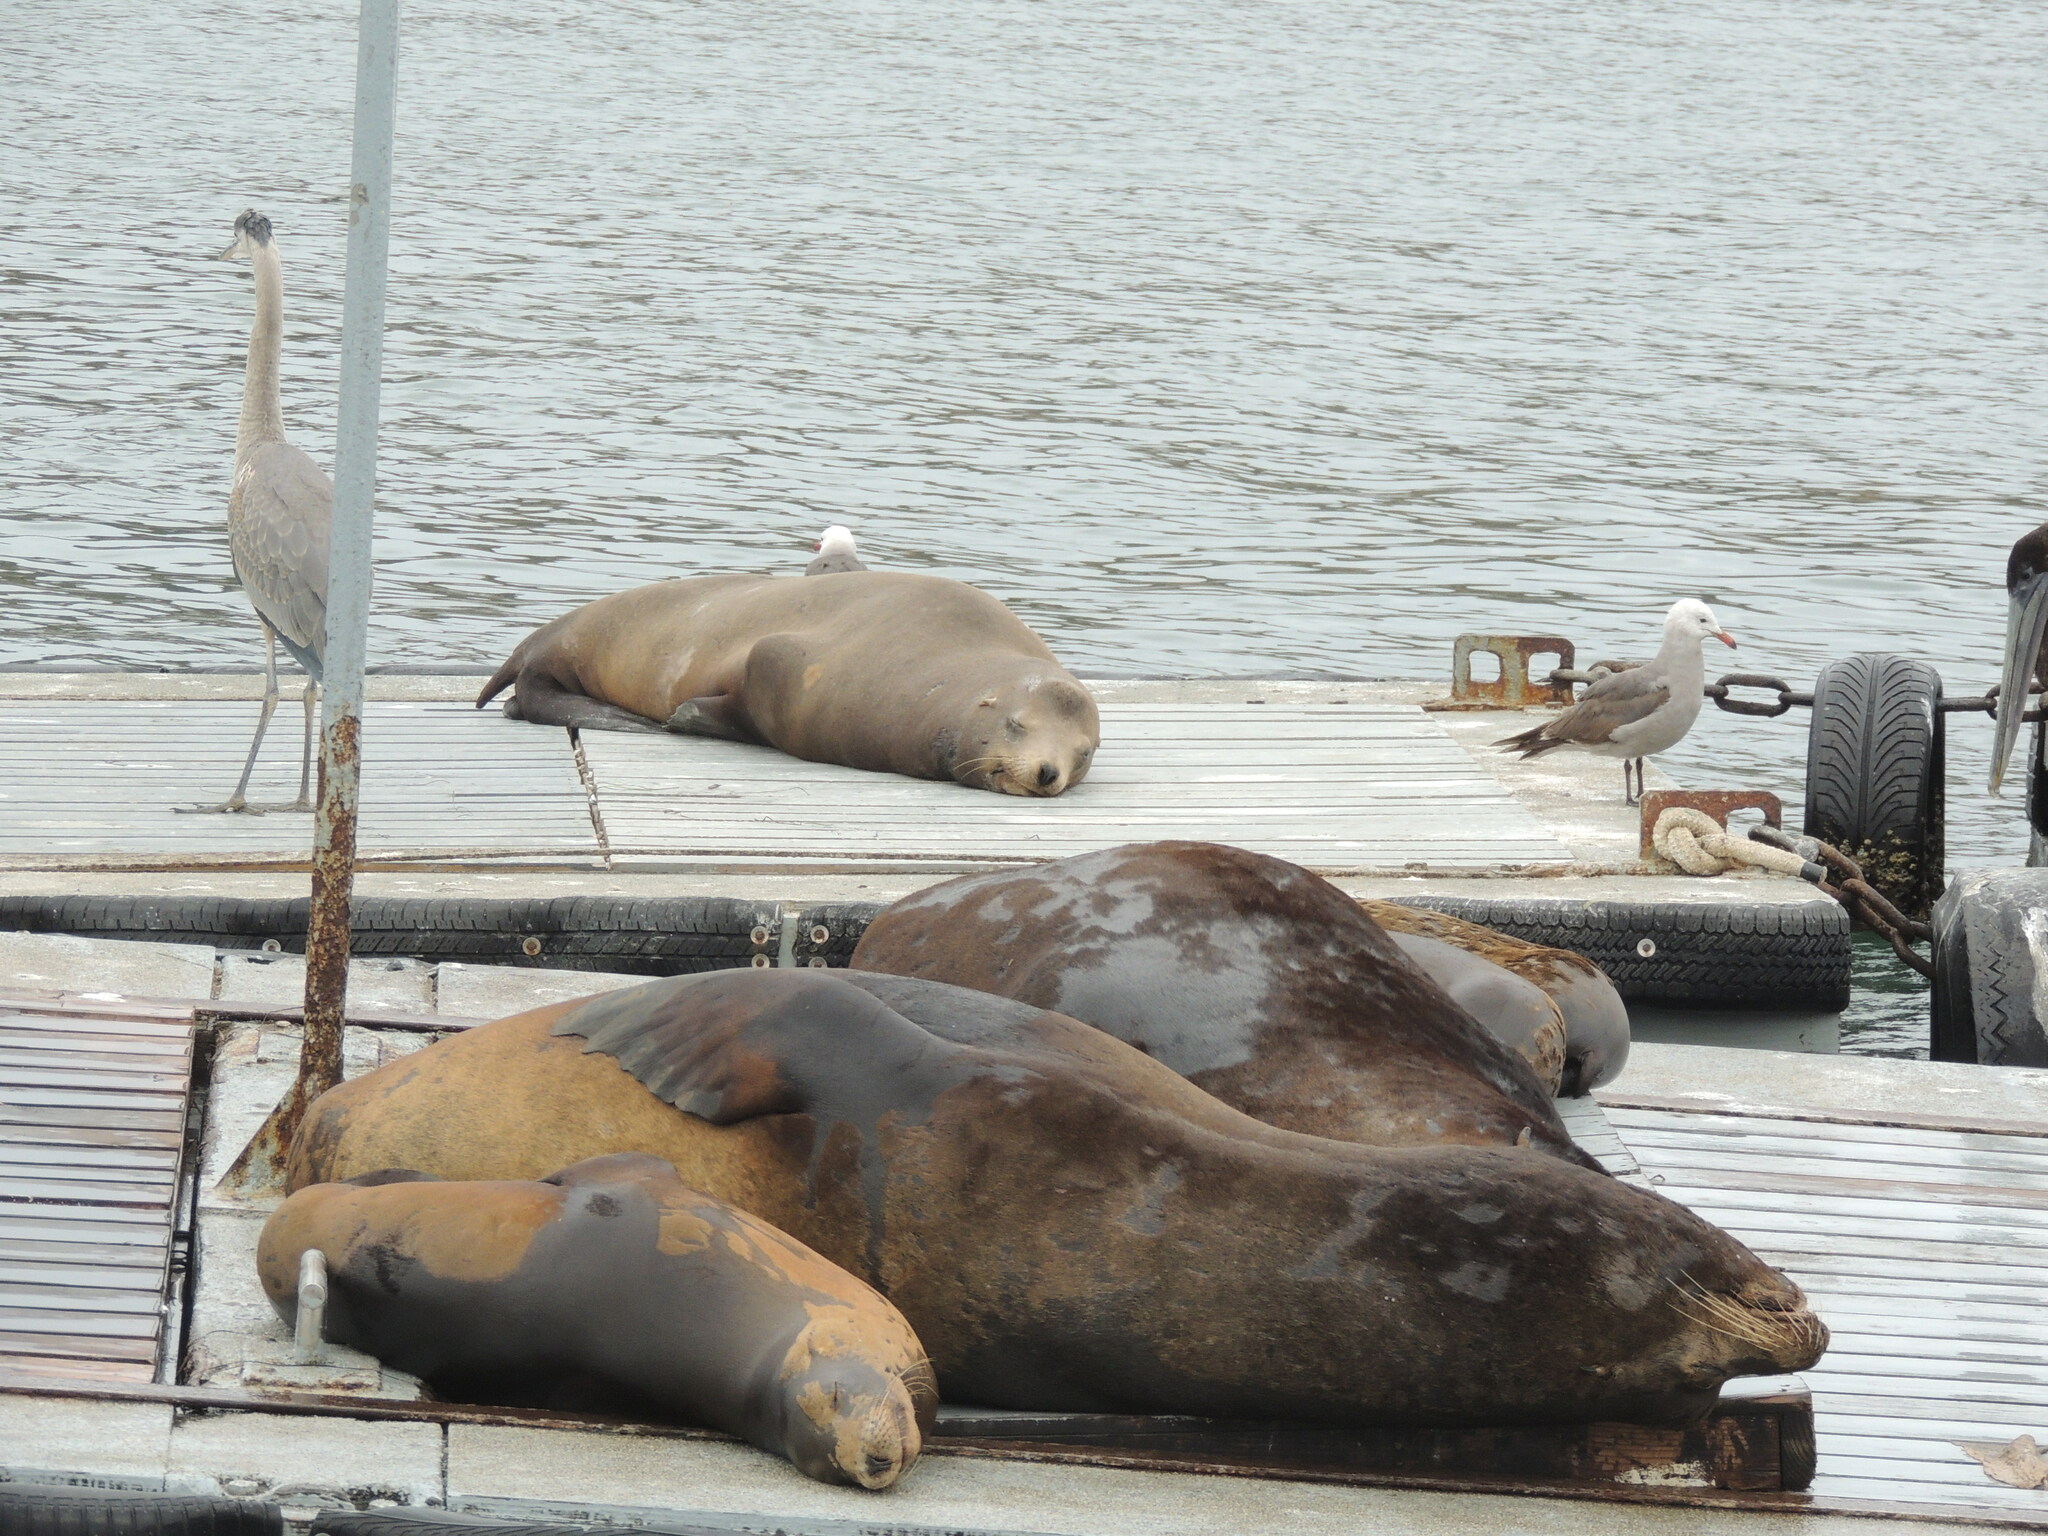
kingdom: Animalia
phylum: Chordata
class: Mammalia
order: Carnivora
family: Otariidae
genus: Zalophus
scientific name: Zalophus californianus
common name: California sea lion
